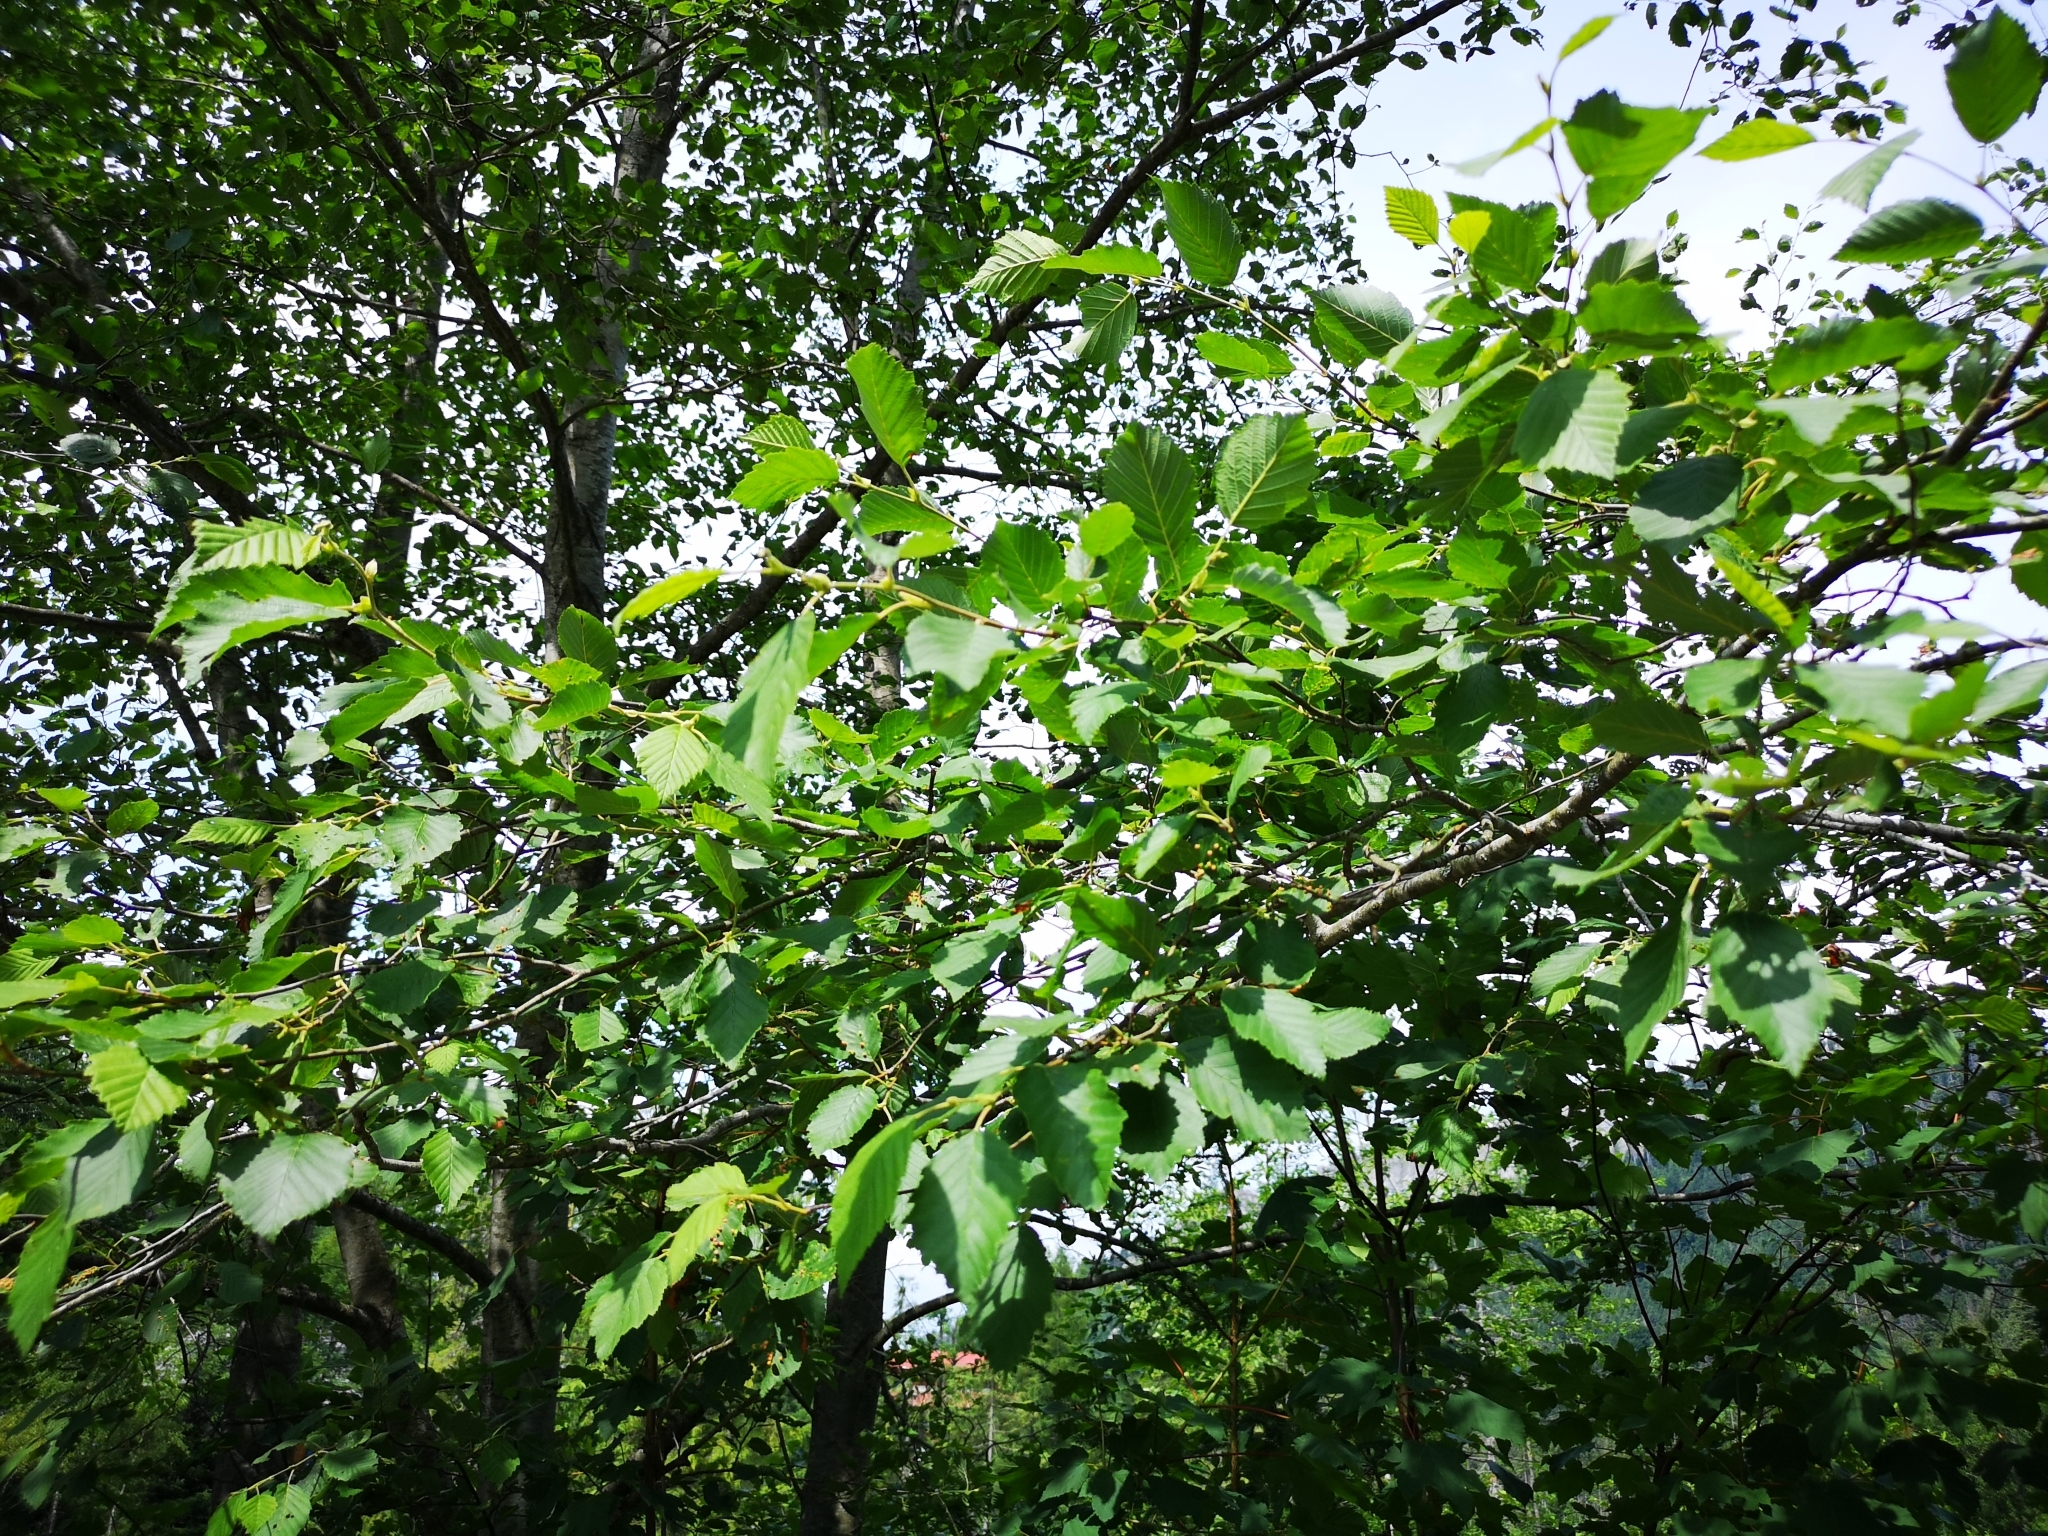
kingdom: Plantae
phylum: Tracheophyta
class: Magnoliopsida
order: Fagales
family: Betulaceae
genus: Alnus
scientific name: Alnus incana
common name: Grey alder
